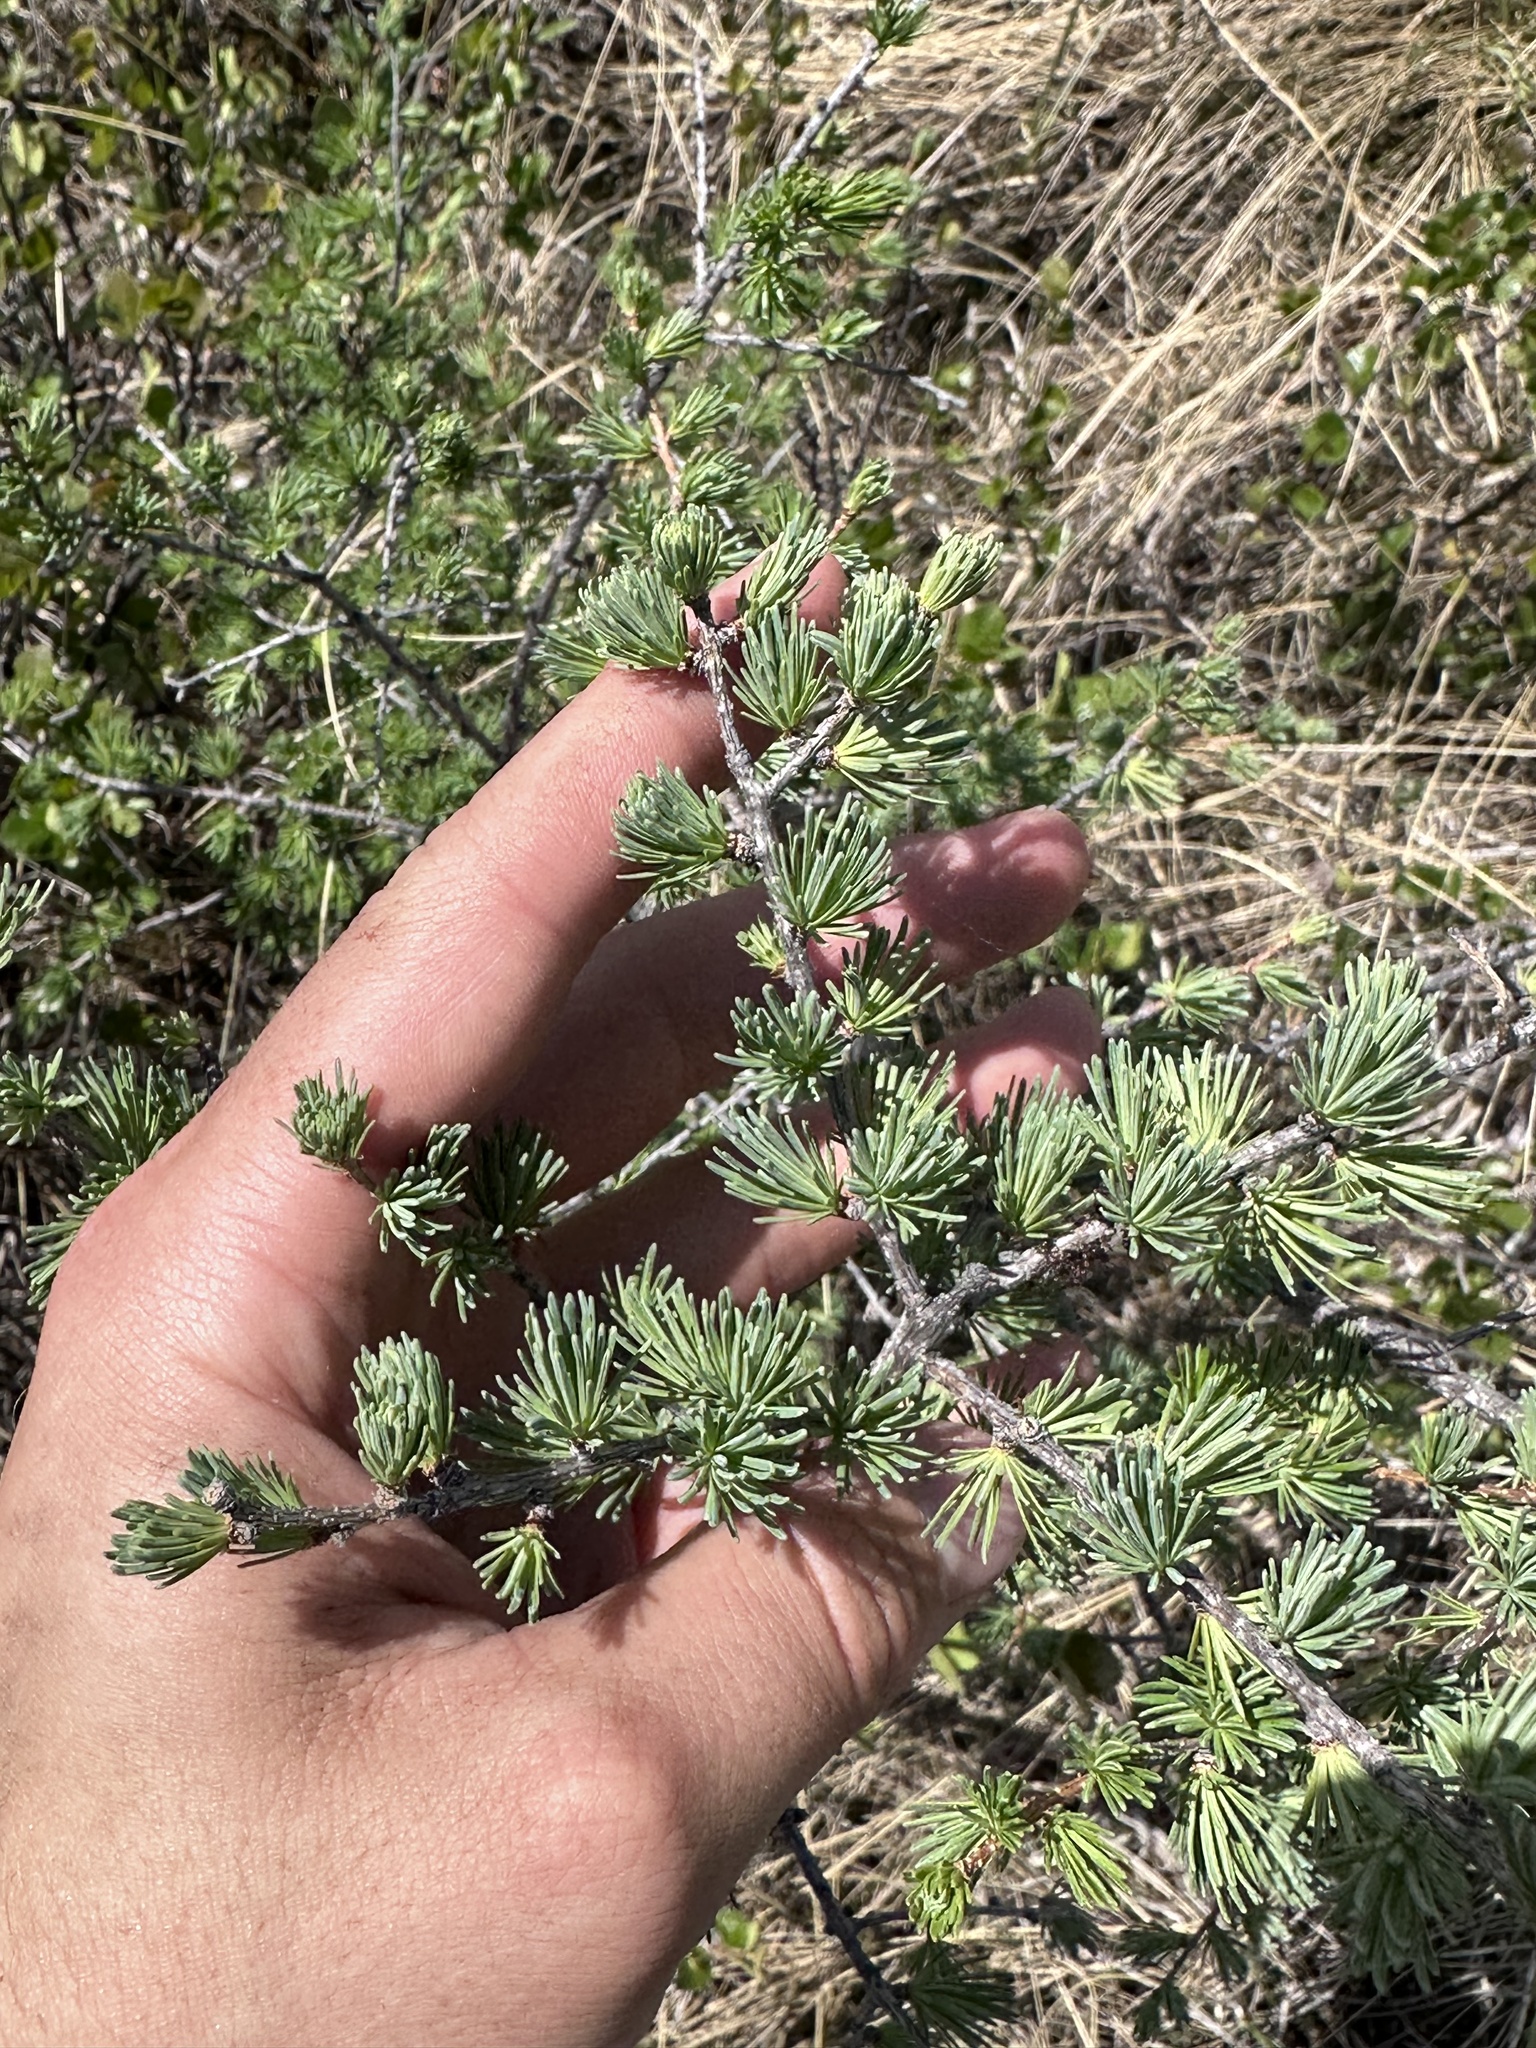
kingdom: Plantae
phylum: Tracheophyta
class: Pinopsida
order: Pinales
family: Pinaceae
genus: Larix
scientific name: Larix laricina
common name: American larch
